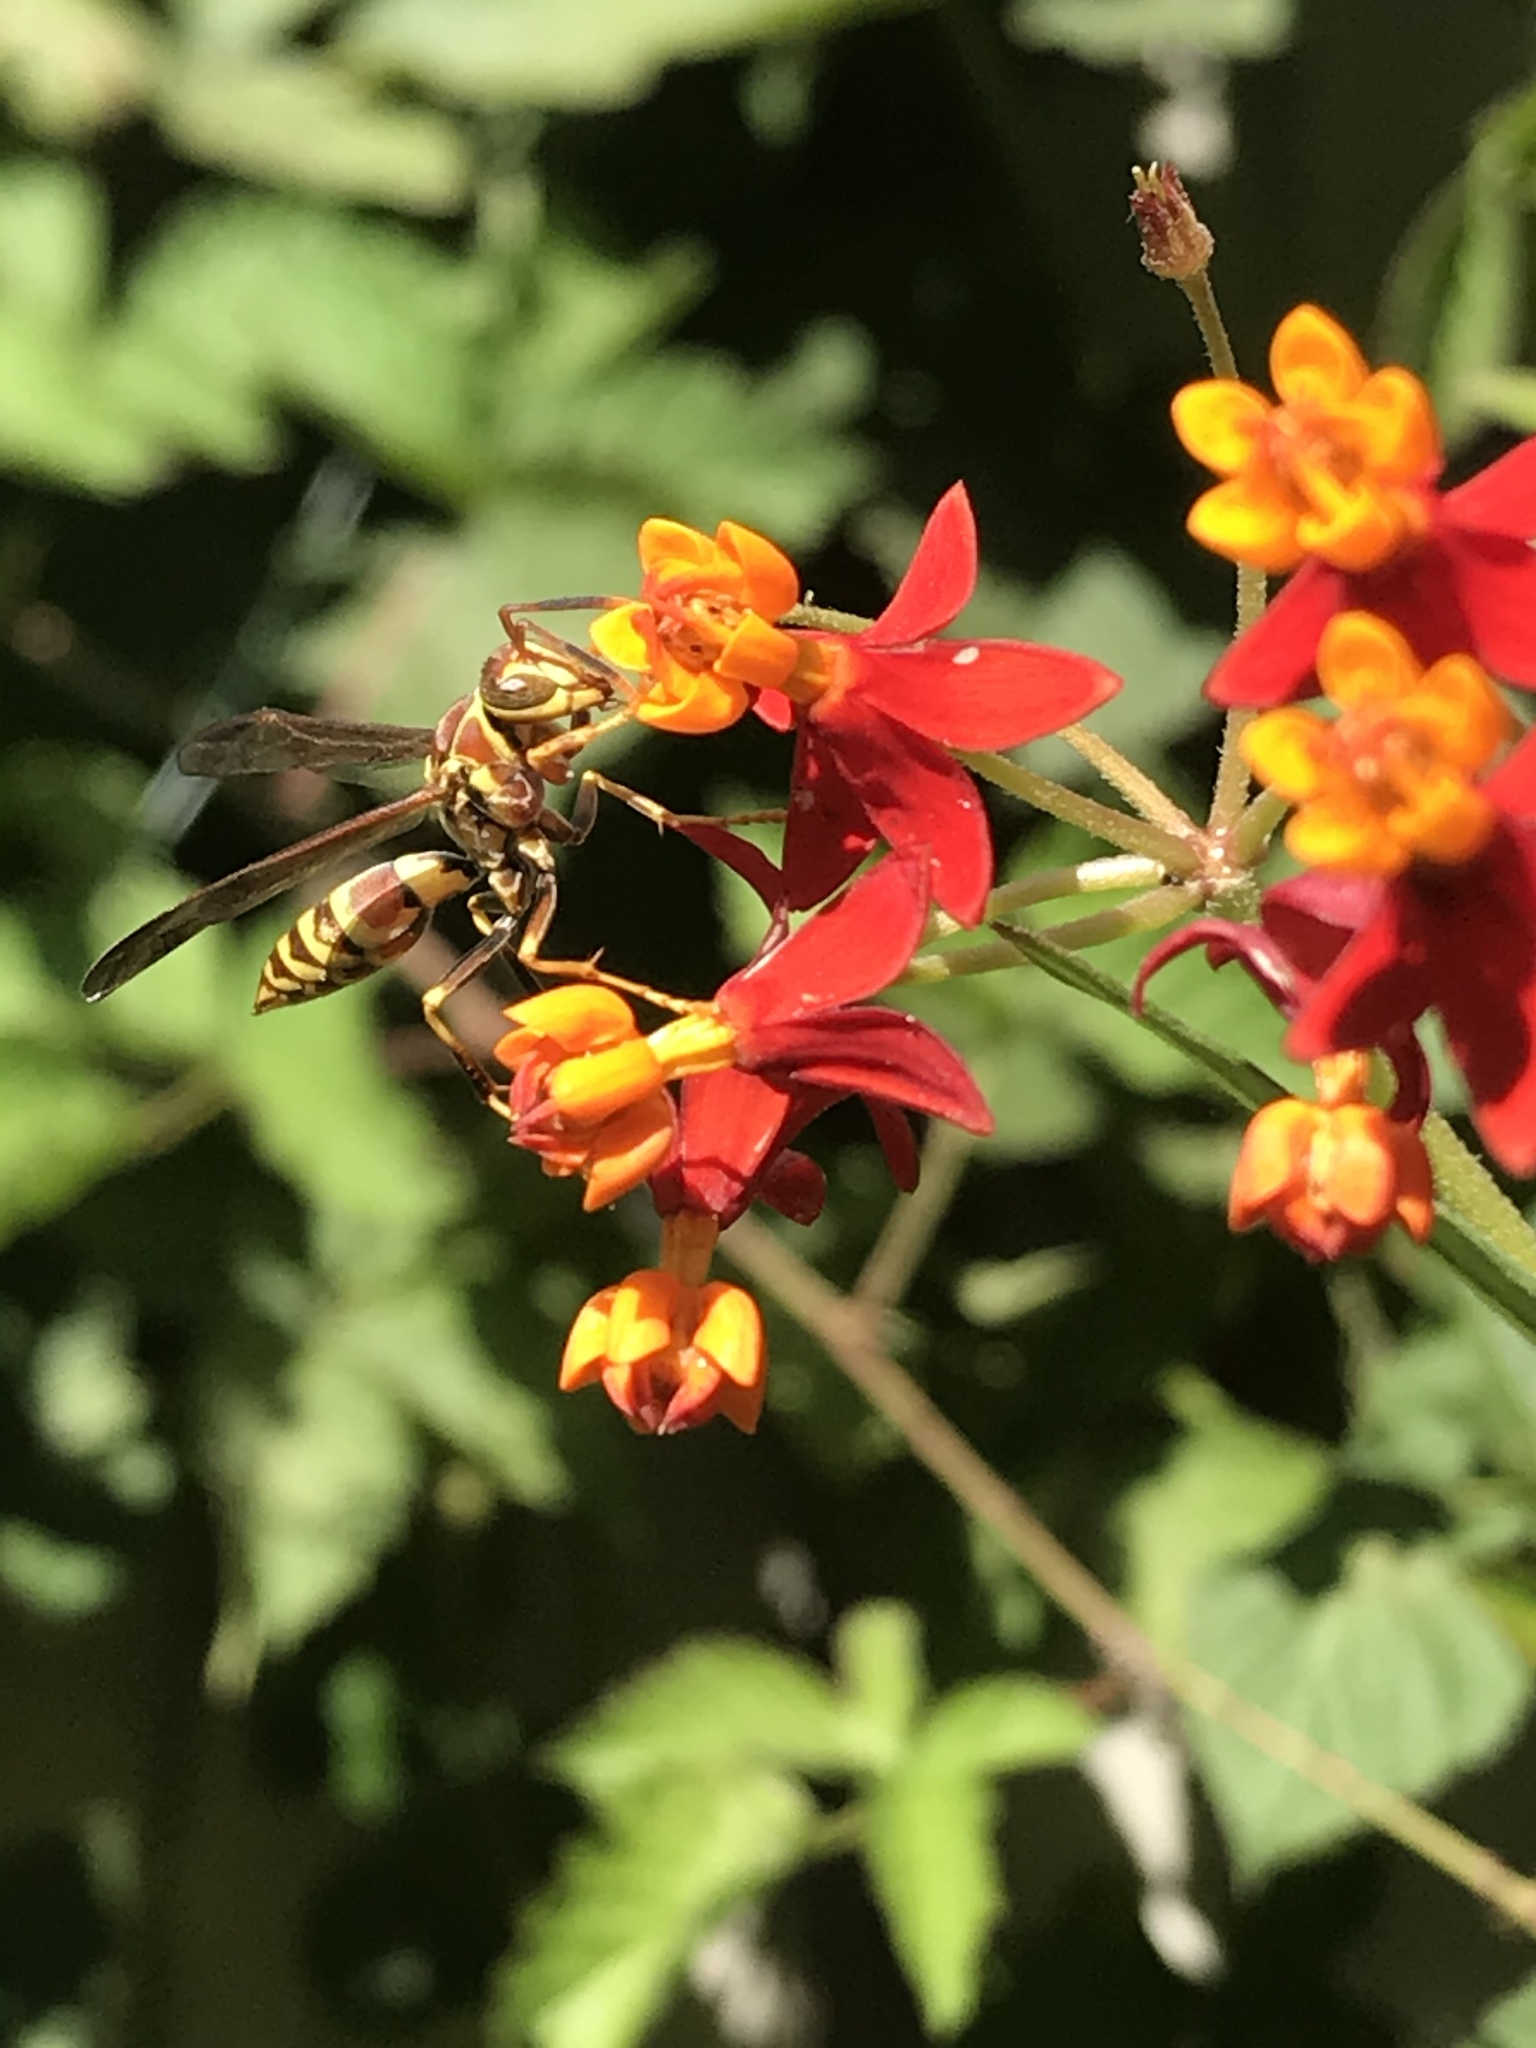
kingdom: Animalia
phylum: Arthropoda
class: Insecta
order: Hymenoptera
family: Eumenidae
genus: Polistes
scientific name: Polistes exclamans
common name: Paper wasp
